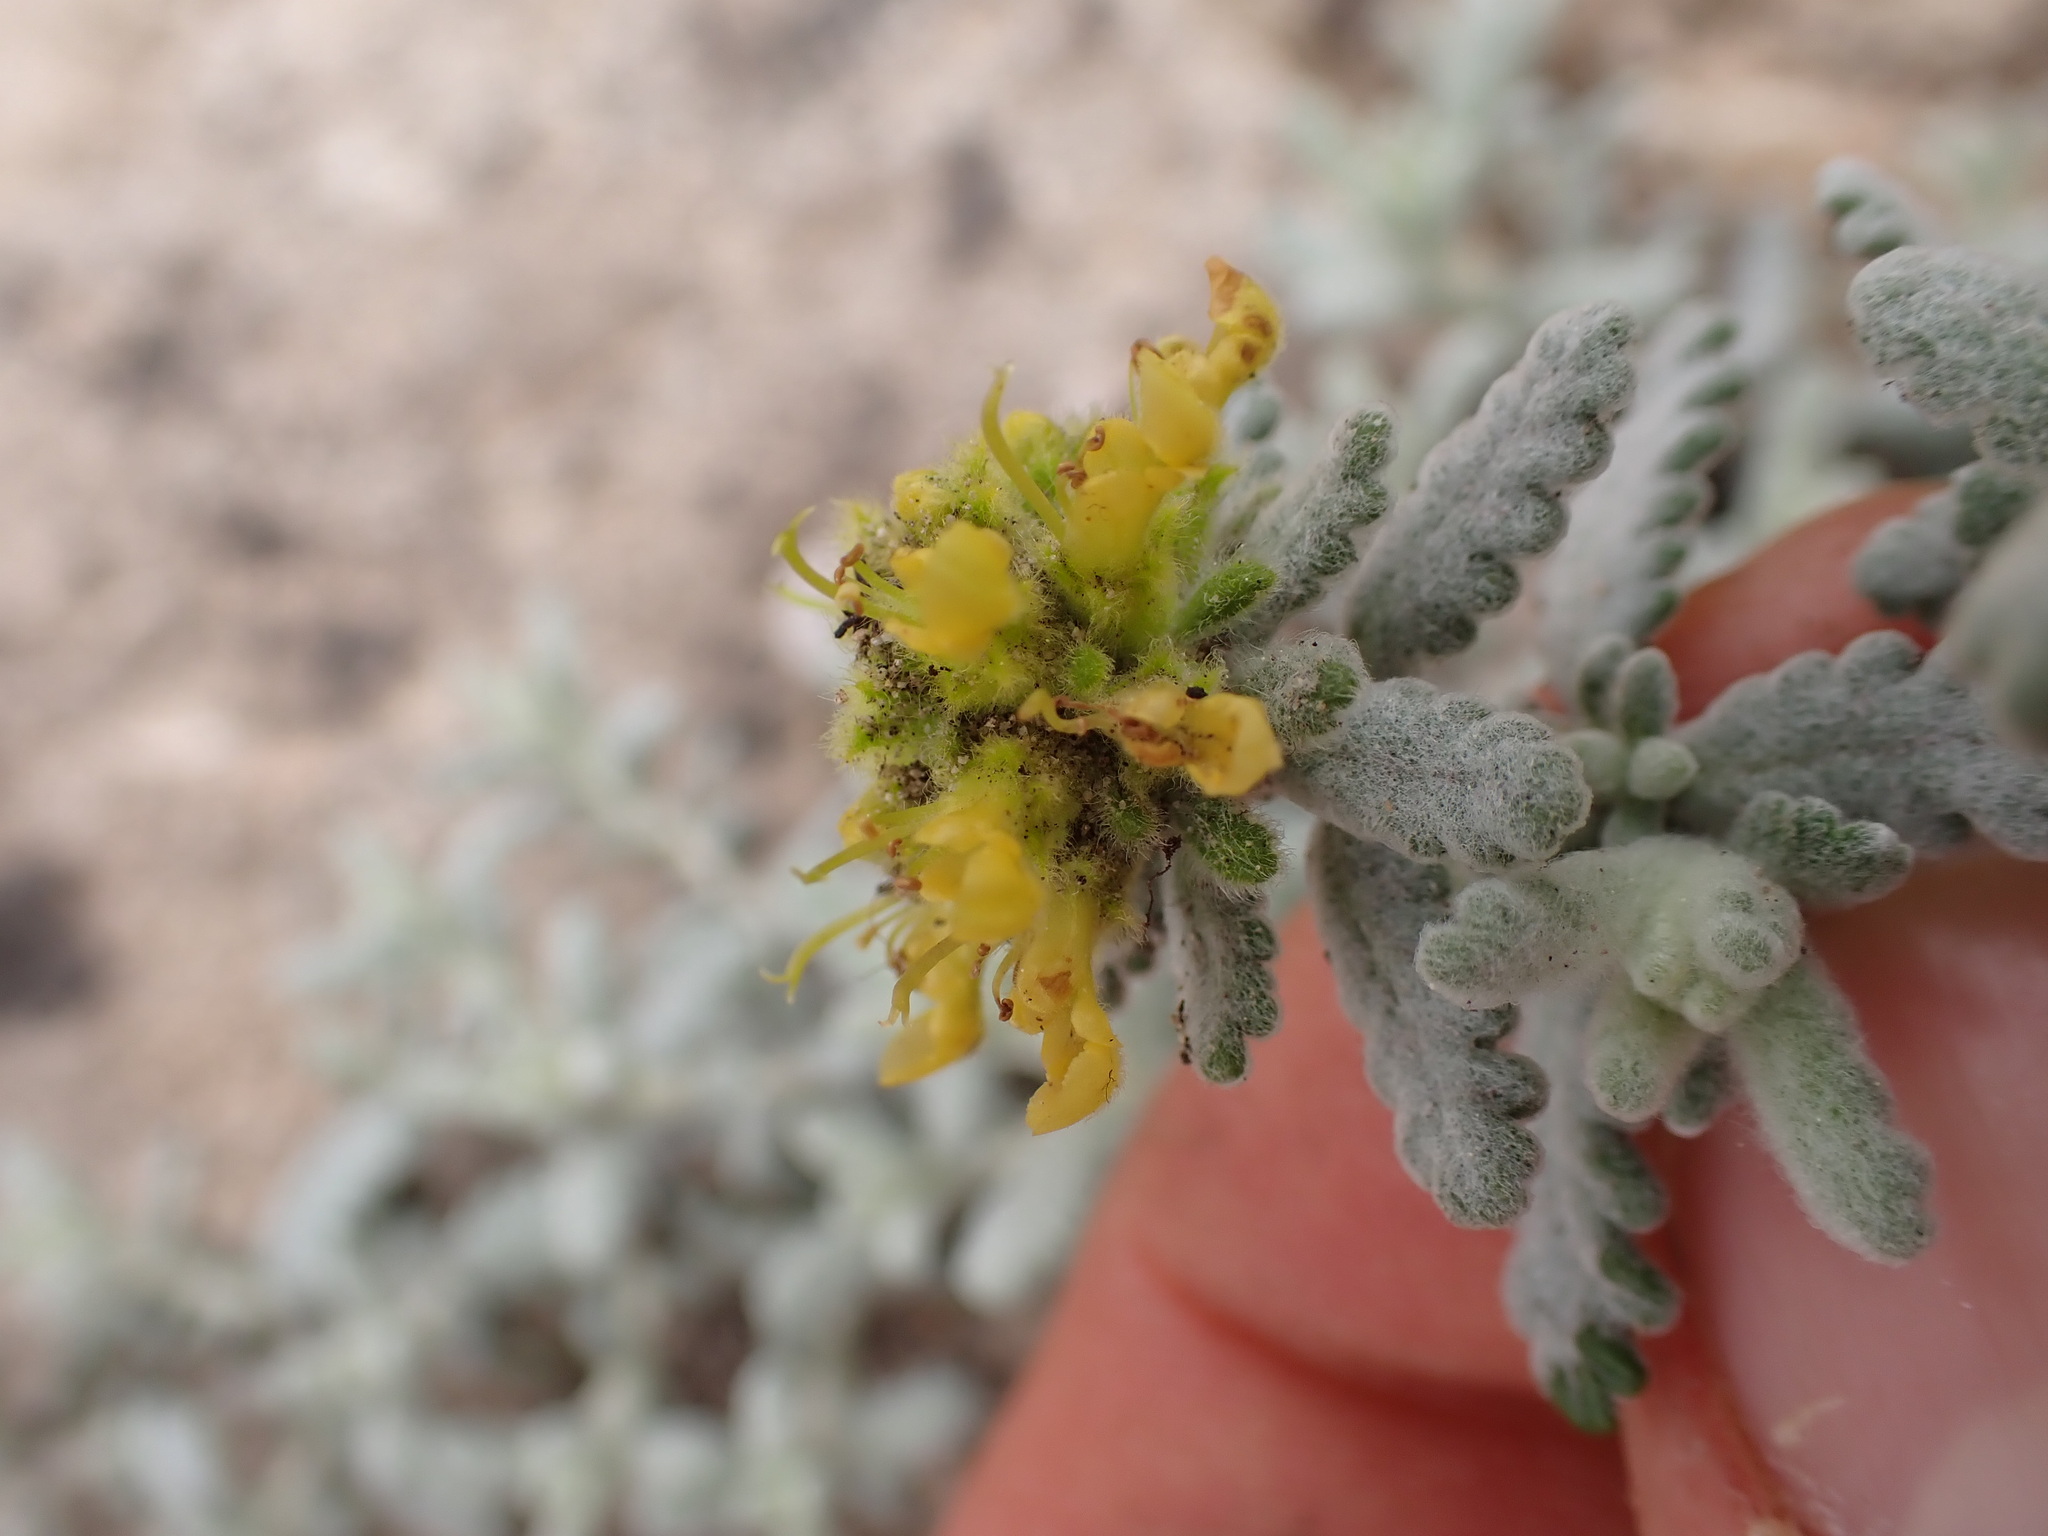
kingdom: Plantae
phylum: Tracheophyta
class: Magnoliopsida
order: Lamiales
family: Lamiaceae
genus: Teucrium
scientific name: Teucrium aureum
